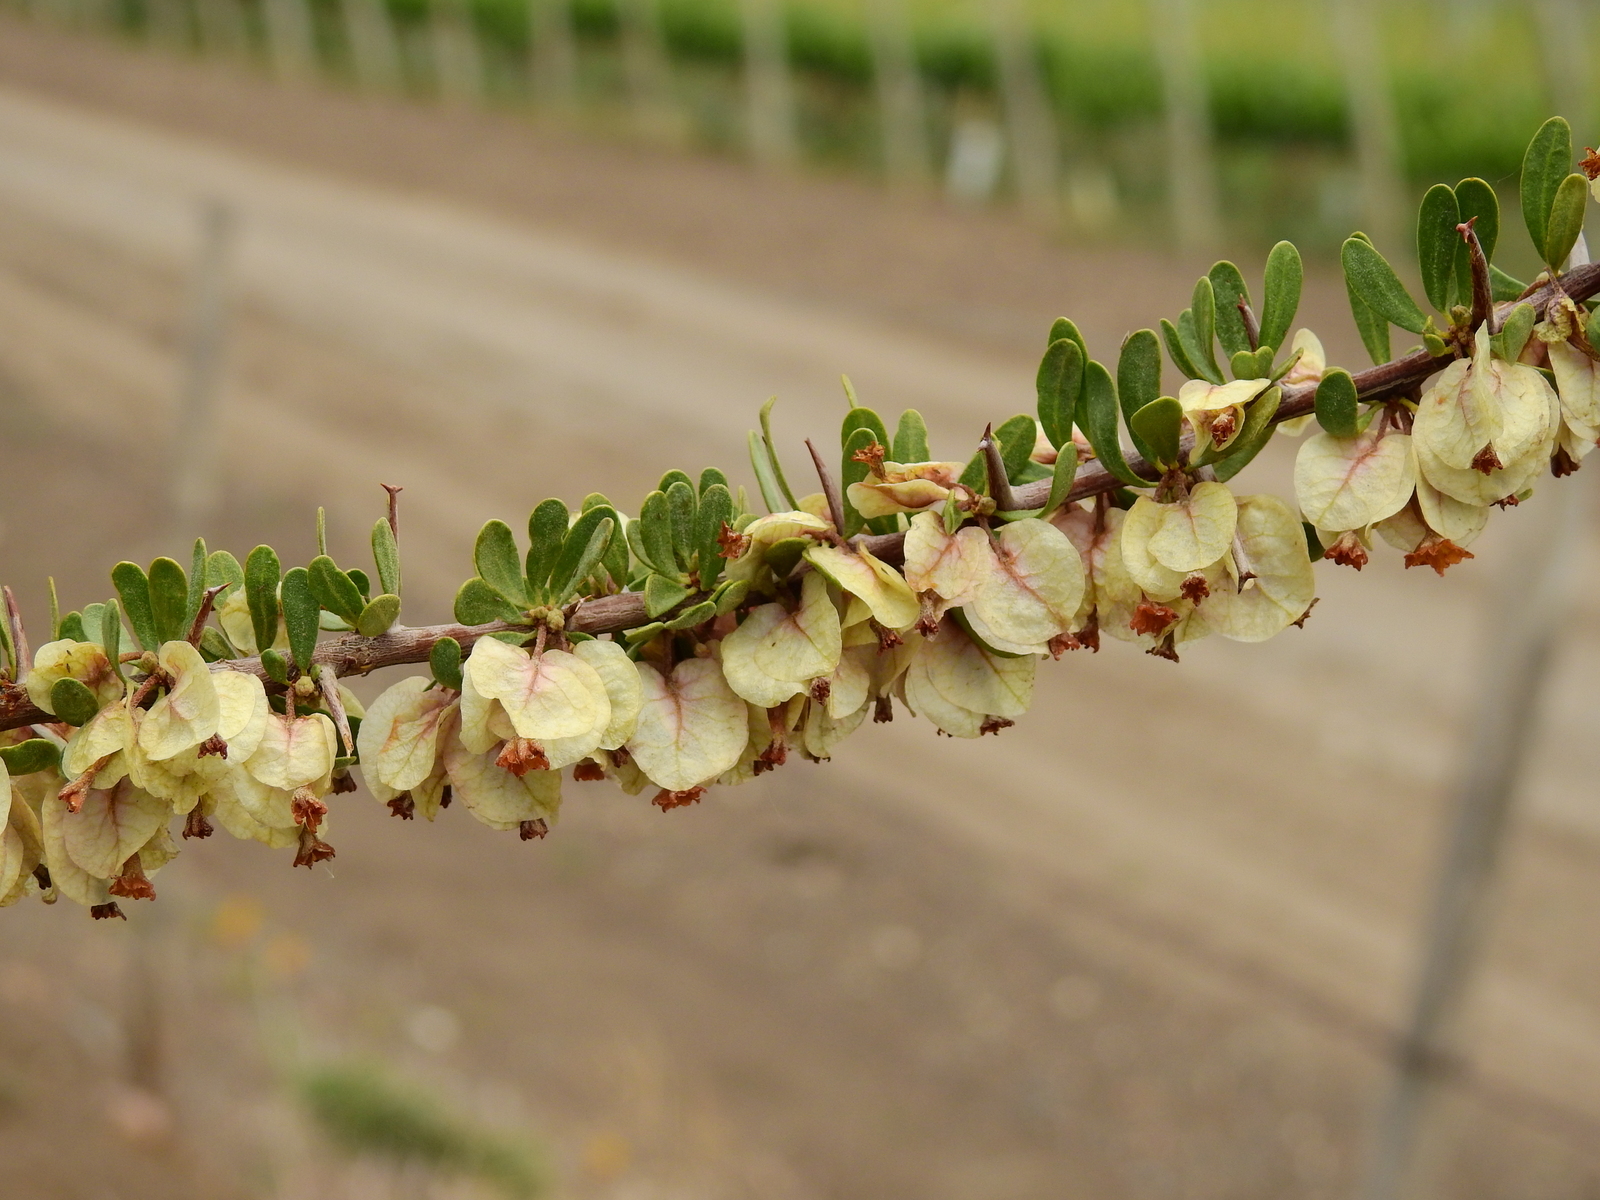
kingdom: Plantae
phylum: Tracheophyta
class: Magnoliopsida
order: Caryophyllales
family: Nyctaginaceae
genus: Bougainvillea
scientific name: Bougainvillea spinosa
